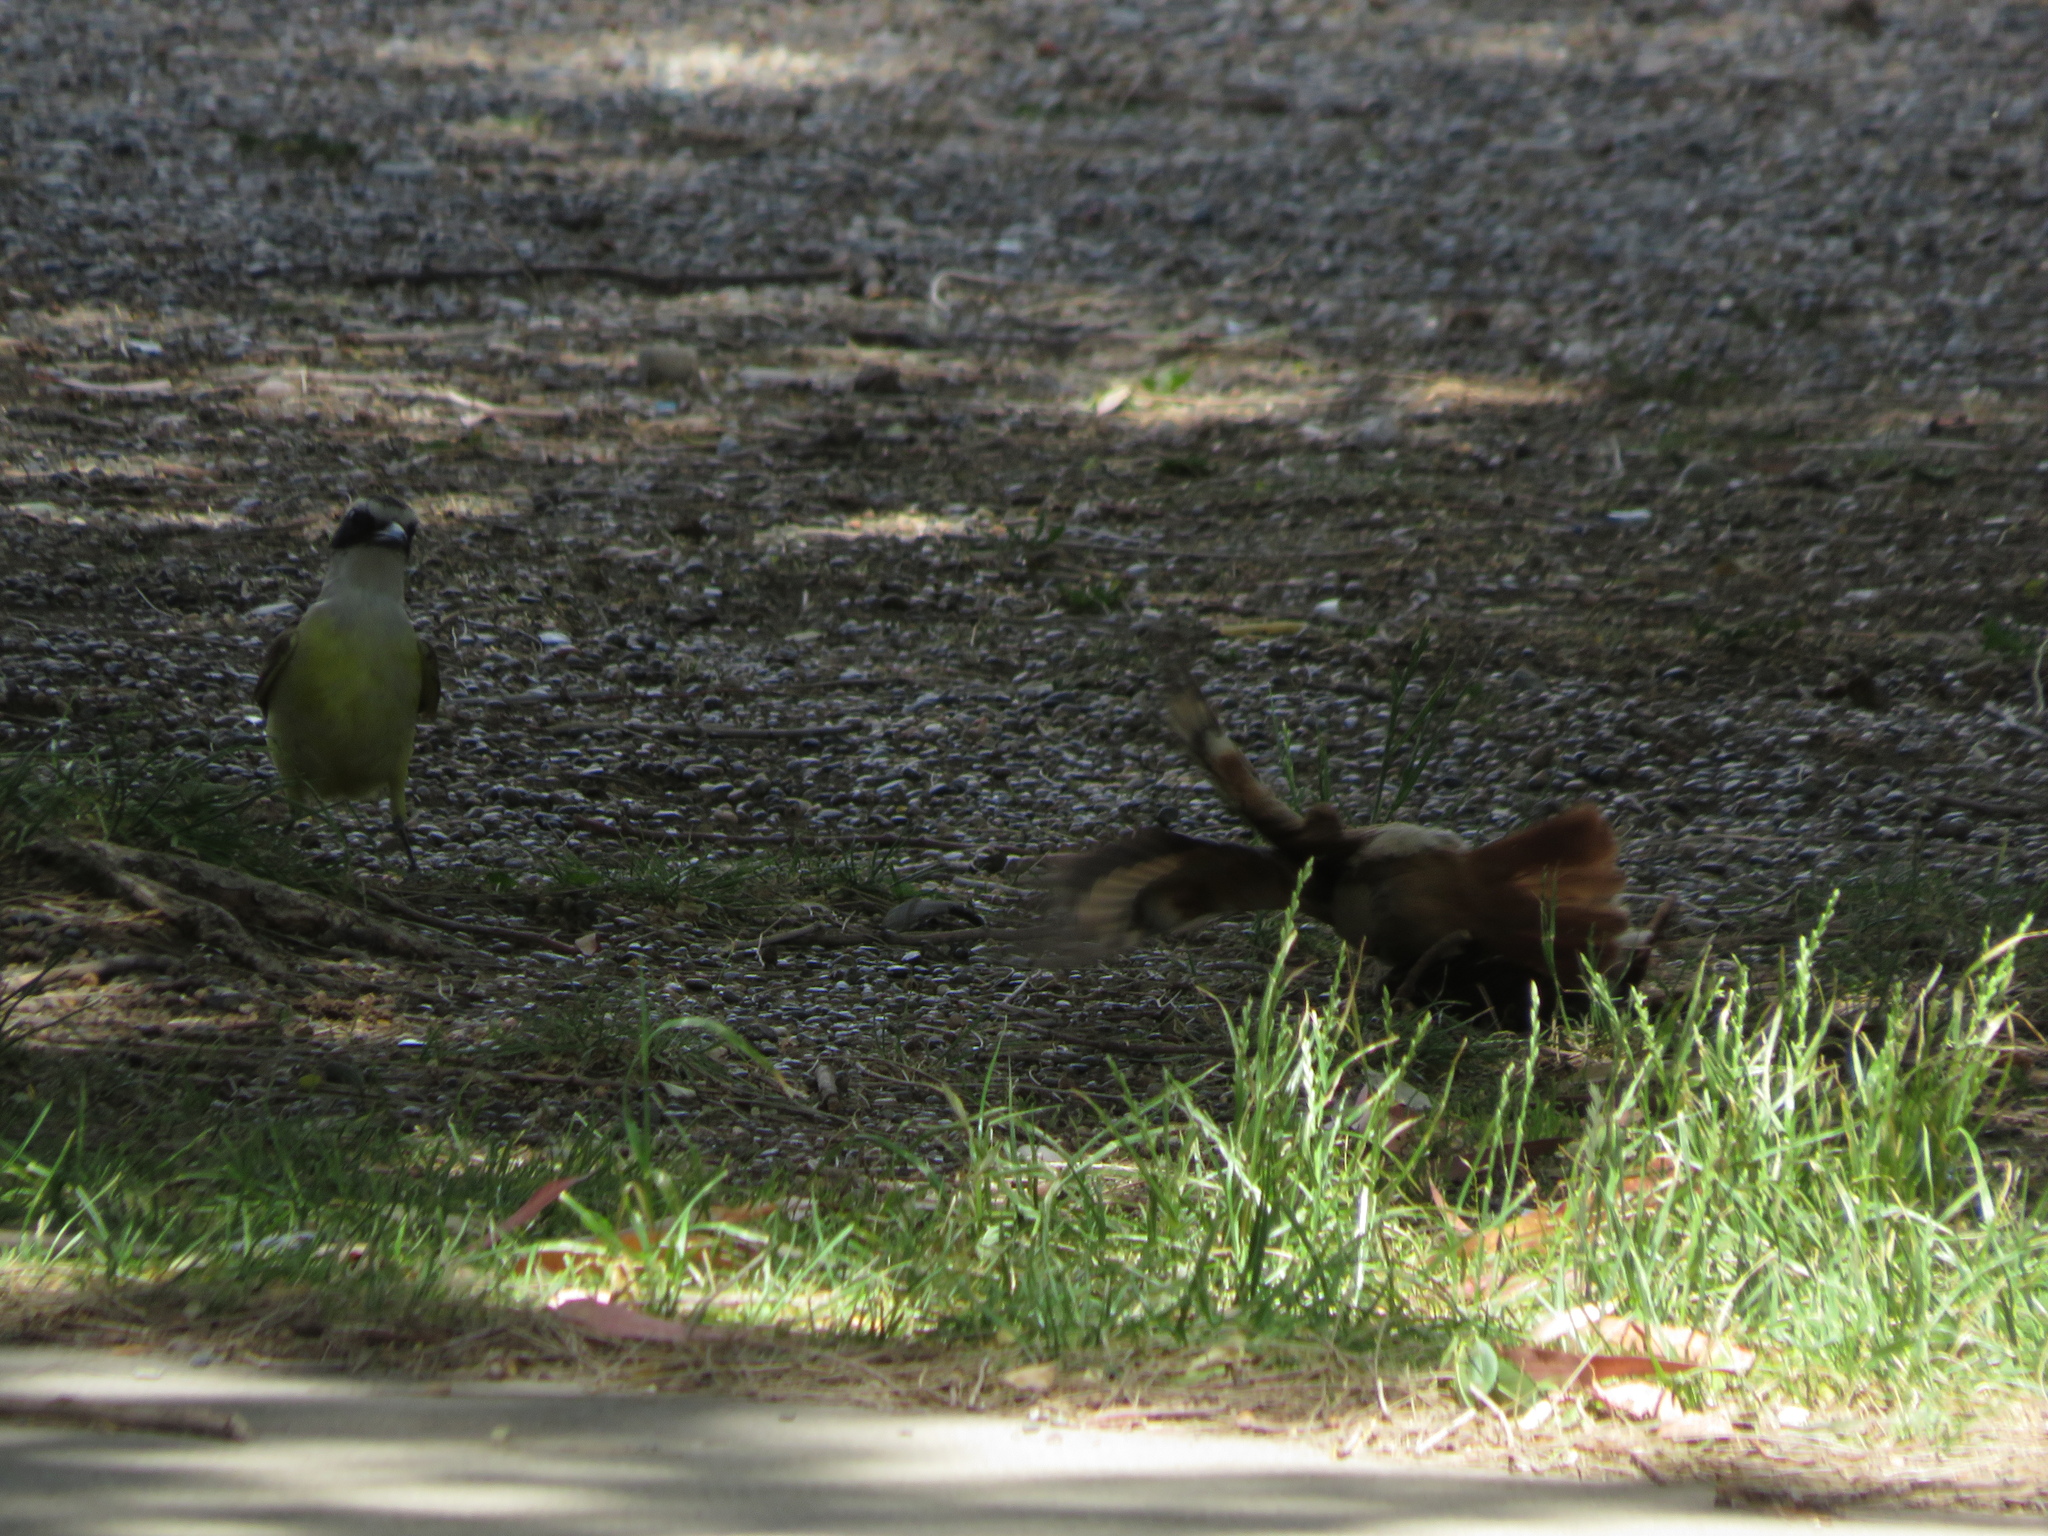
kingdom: Animalia
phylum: Chordata
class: Aves
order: Passeriformes
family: Tyrannidae
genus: Pitangus
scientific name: Pitangus sulphuratus
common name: Great kiskadee
